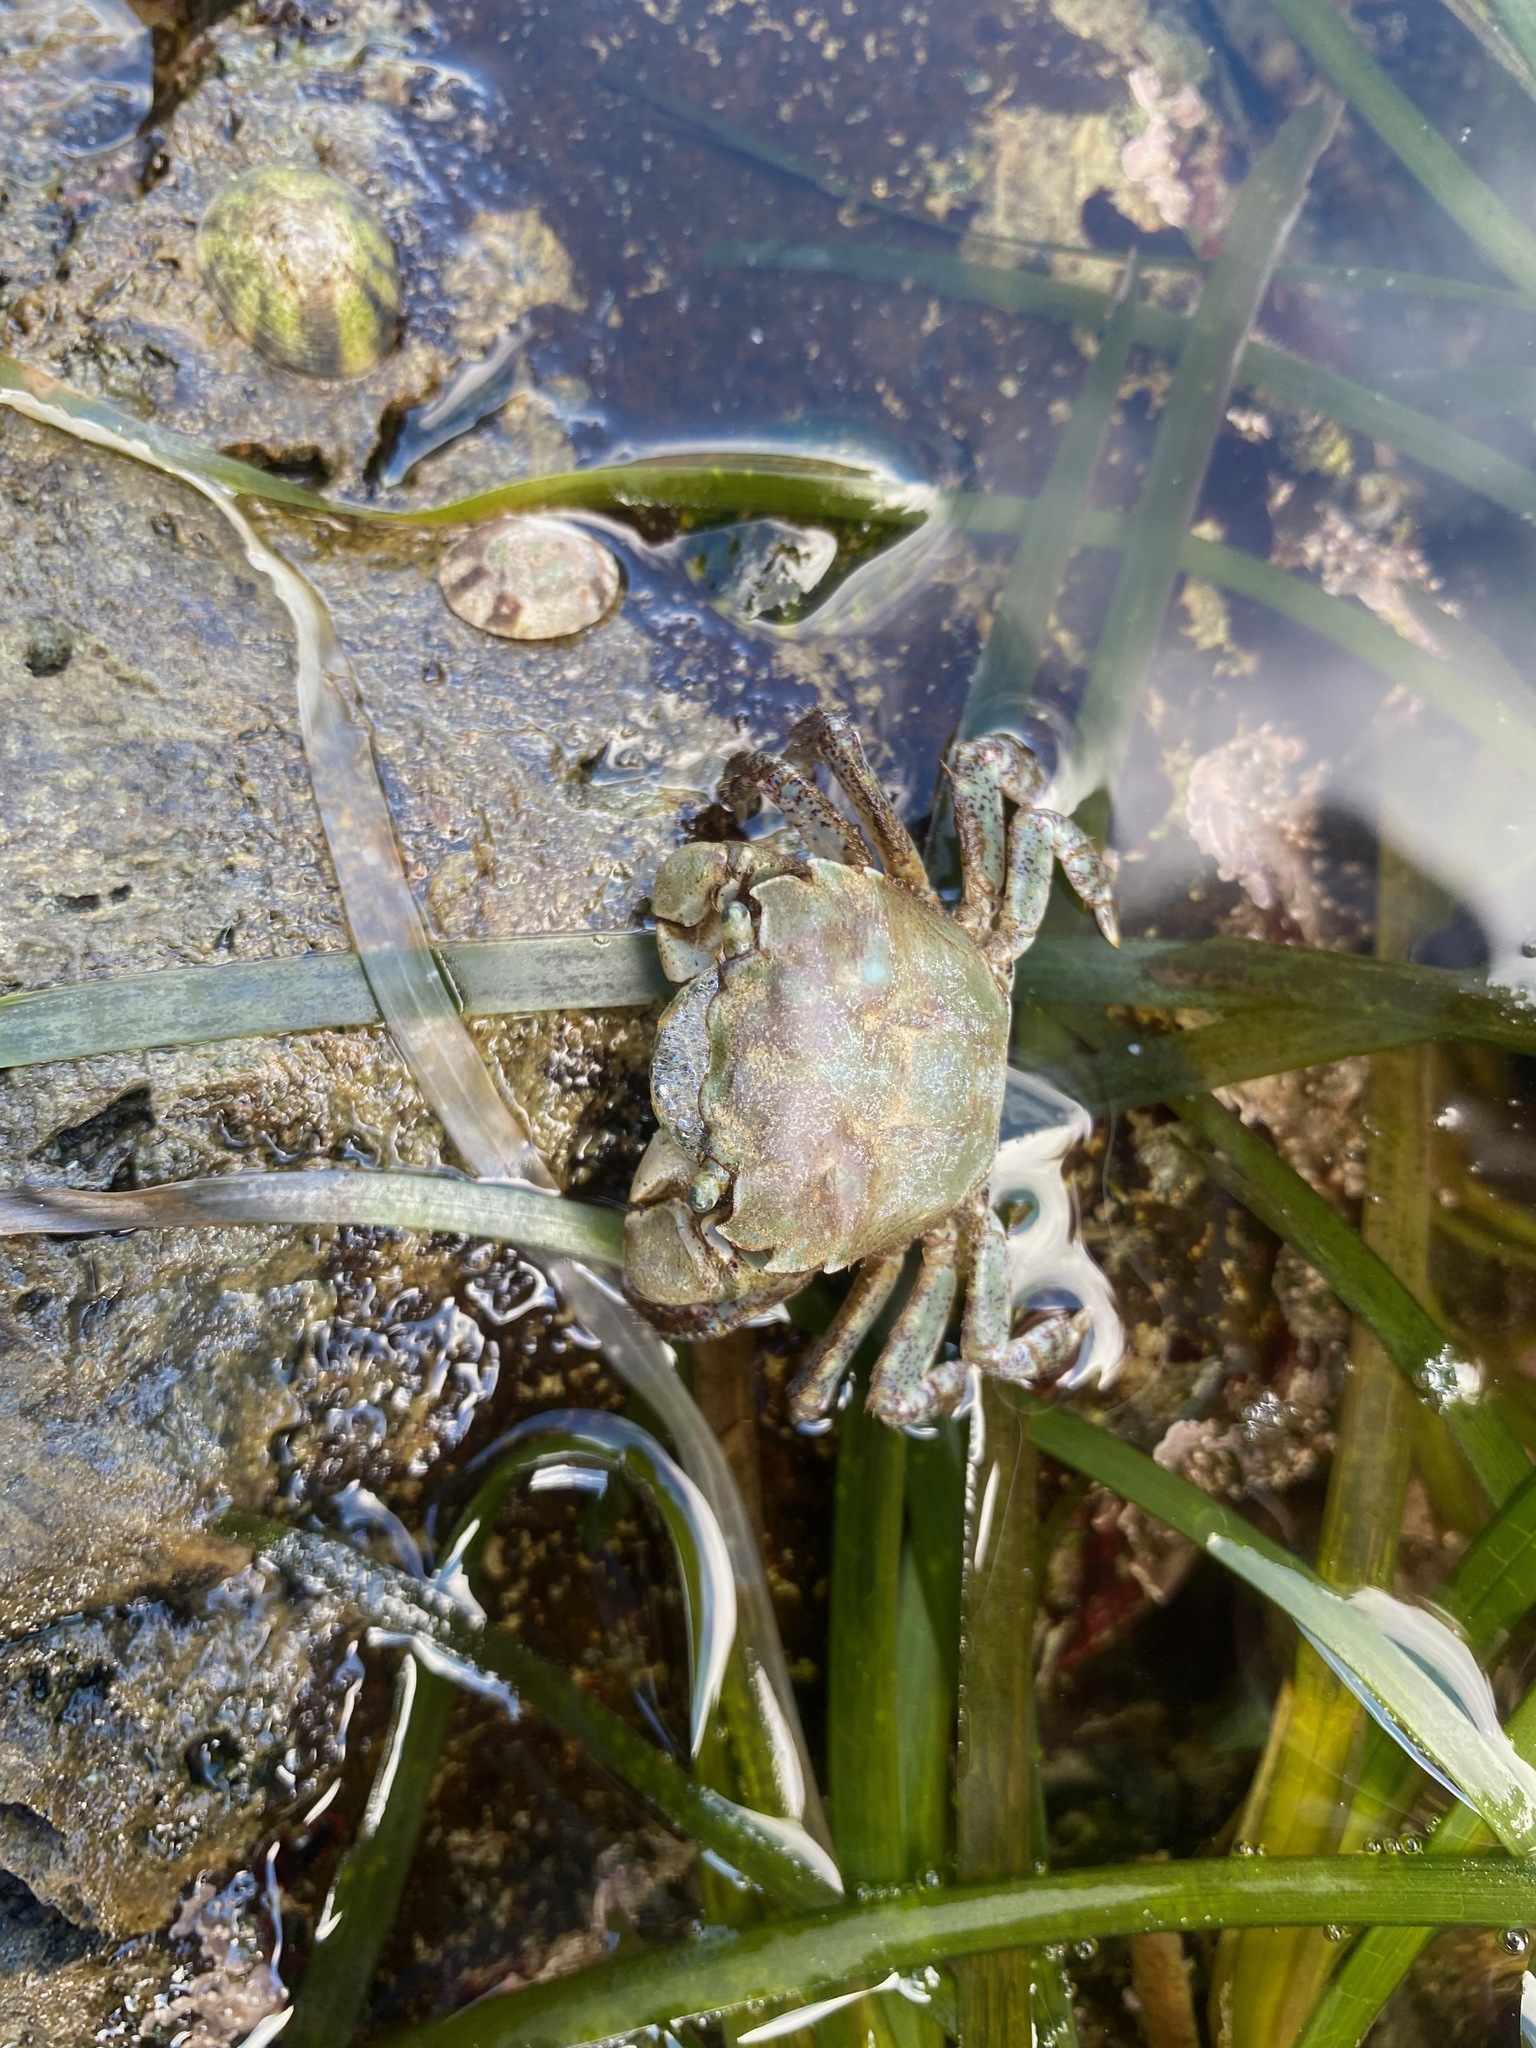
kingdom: Animalia
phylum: Arthropoda
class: Malacostraca
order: Decapoda
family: Varunidae
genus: Hemigrapsus
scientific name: Hemigrapsus oregonensis
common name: Yellow shore crab
